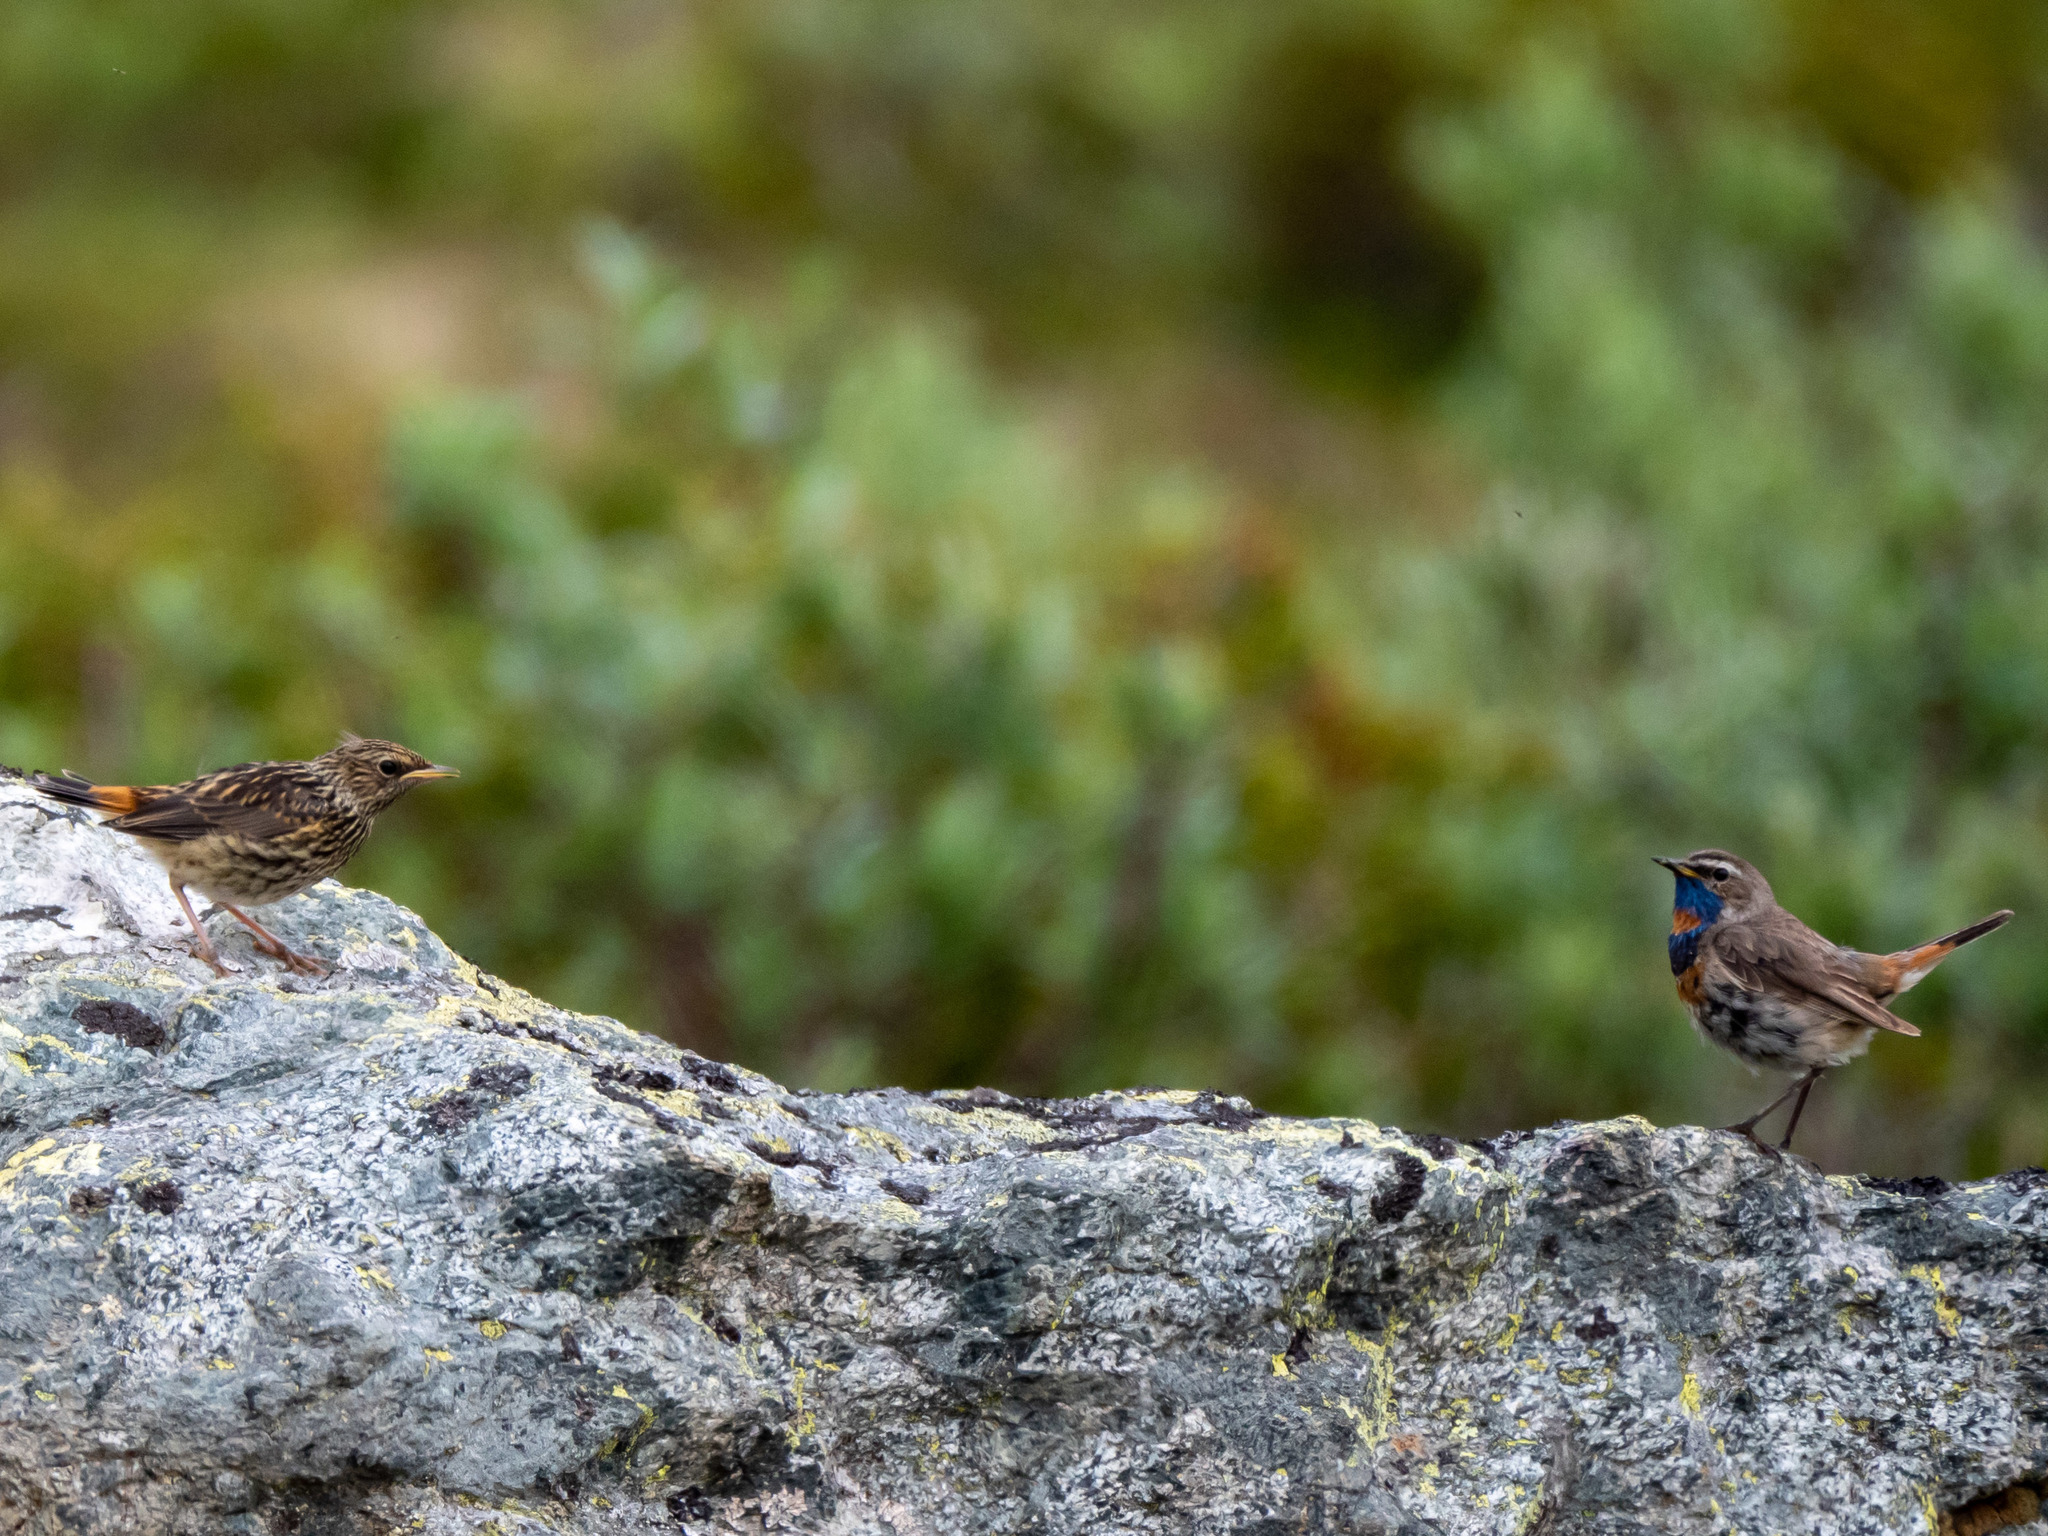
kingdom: Animalia
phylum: Chordata
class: Aves
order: Passeriformes
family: Muscicapidae
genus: Luscinia
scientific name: Luscinia svecica
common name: Bluethroat
